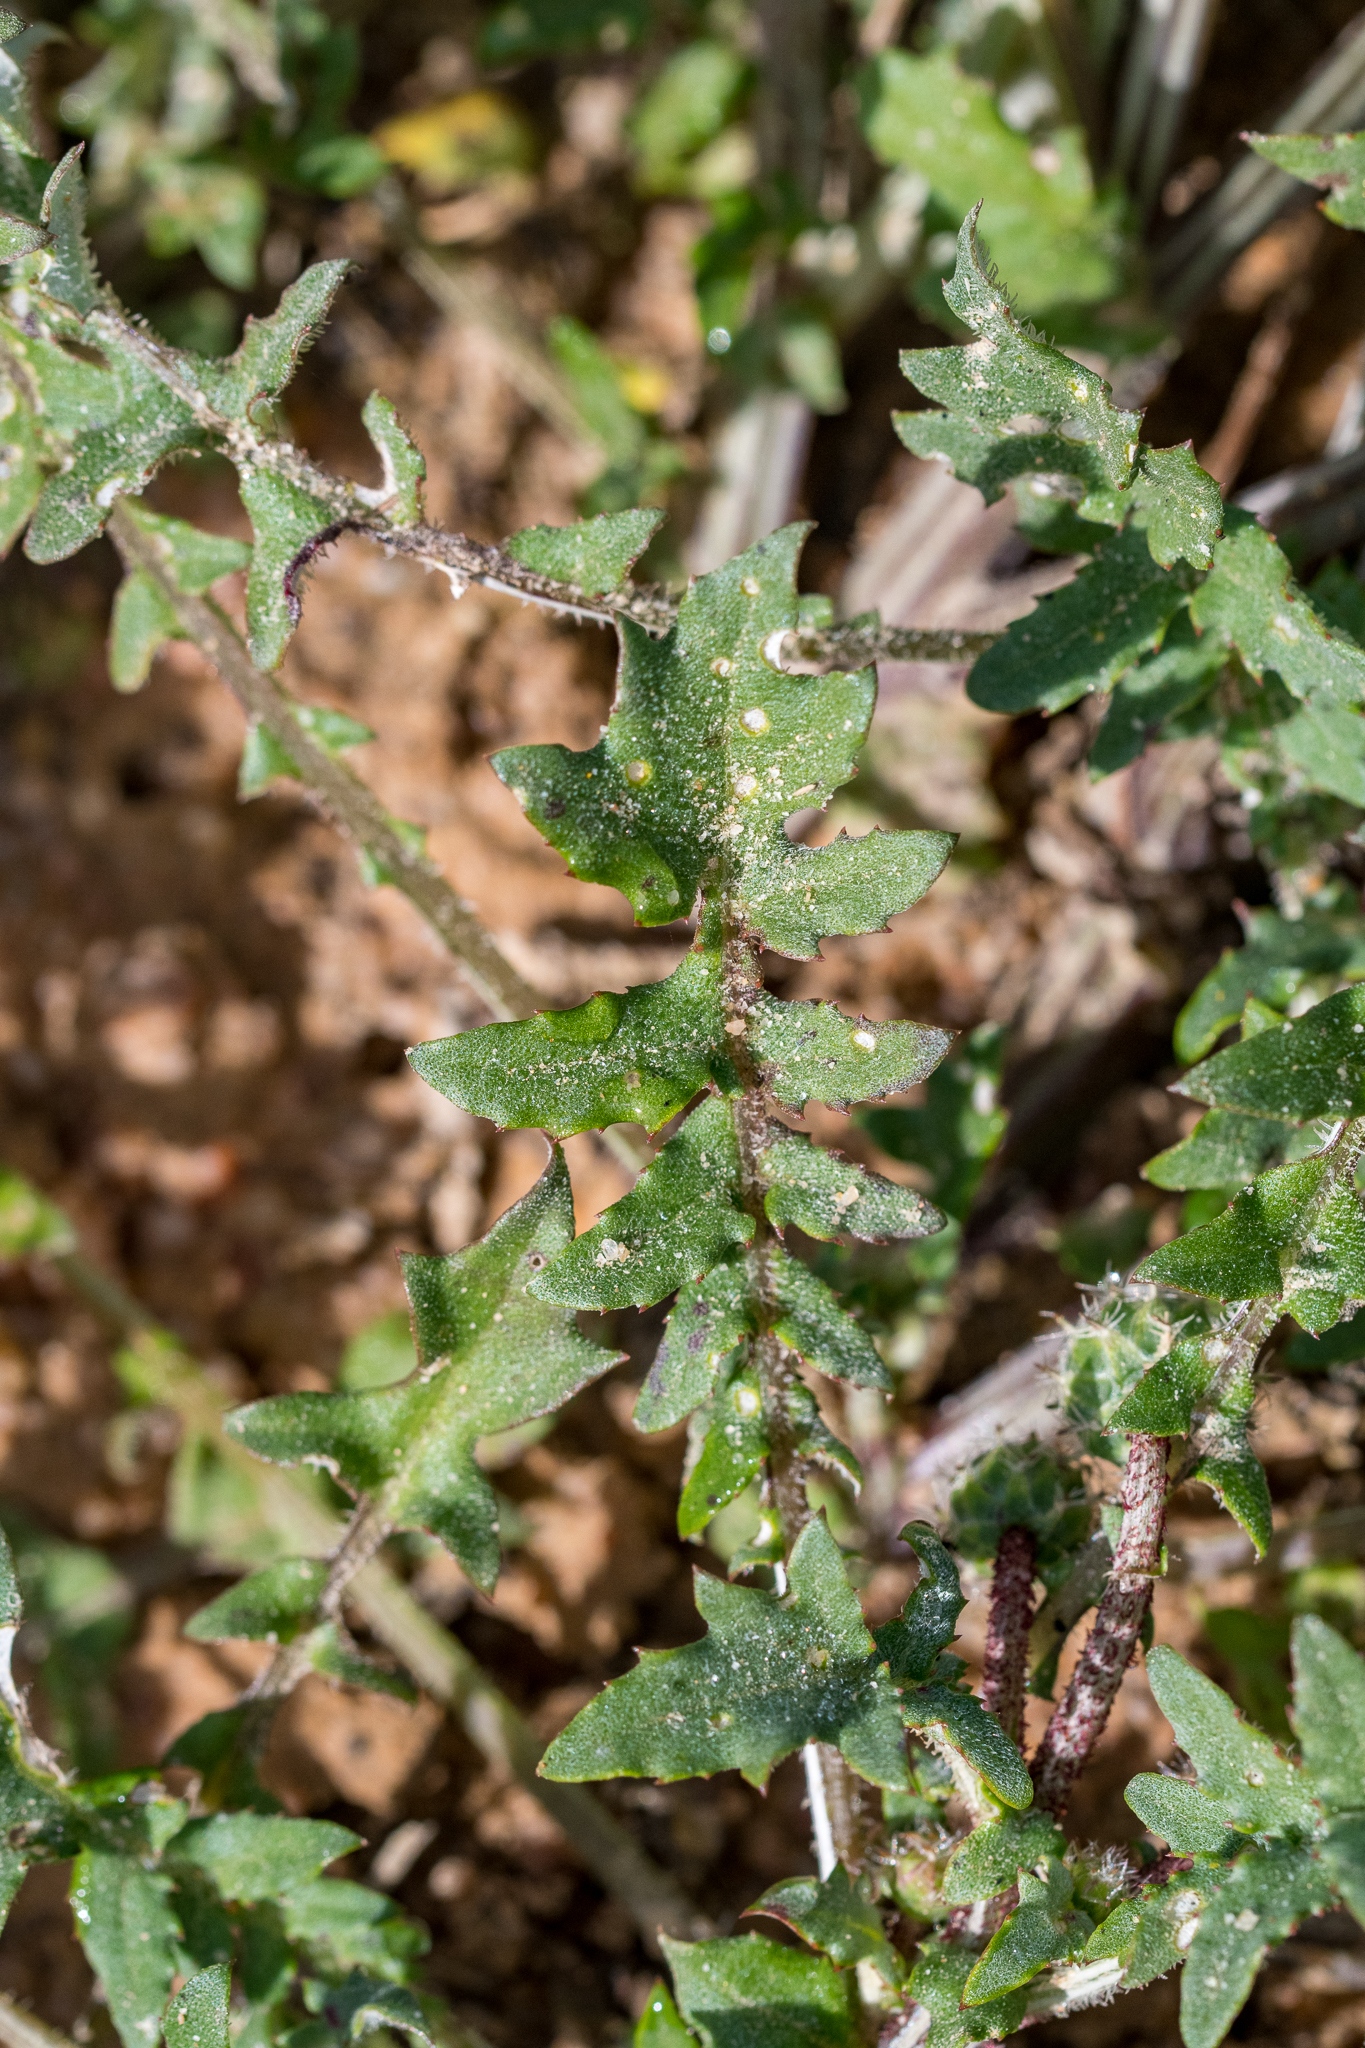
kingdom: Plantae
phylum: Tracheophyta
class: Magnoliopsida
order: Asterales
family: Asteraceae
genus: Arctotheca
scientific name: Arctotheca calendula
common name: Capeweed
